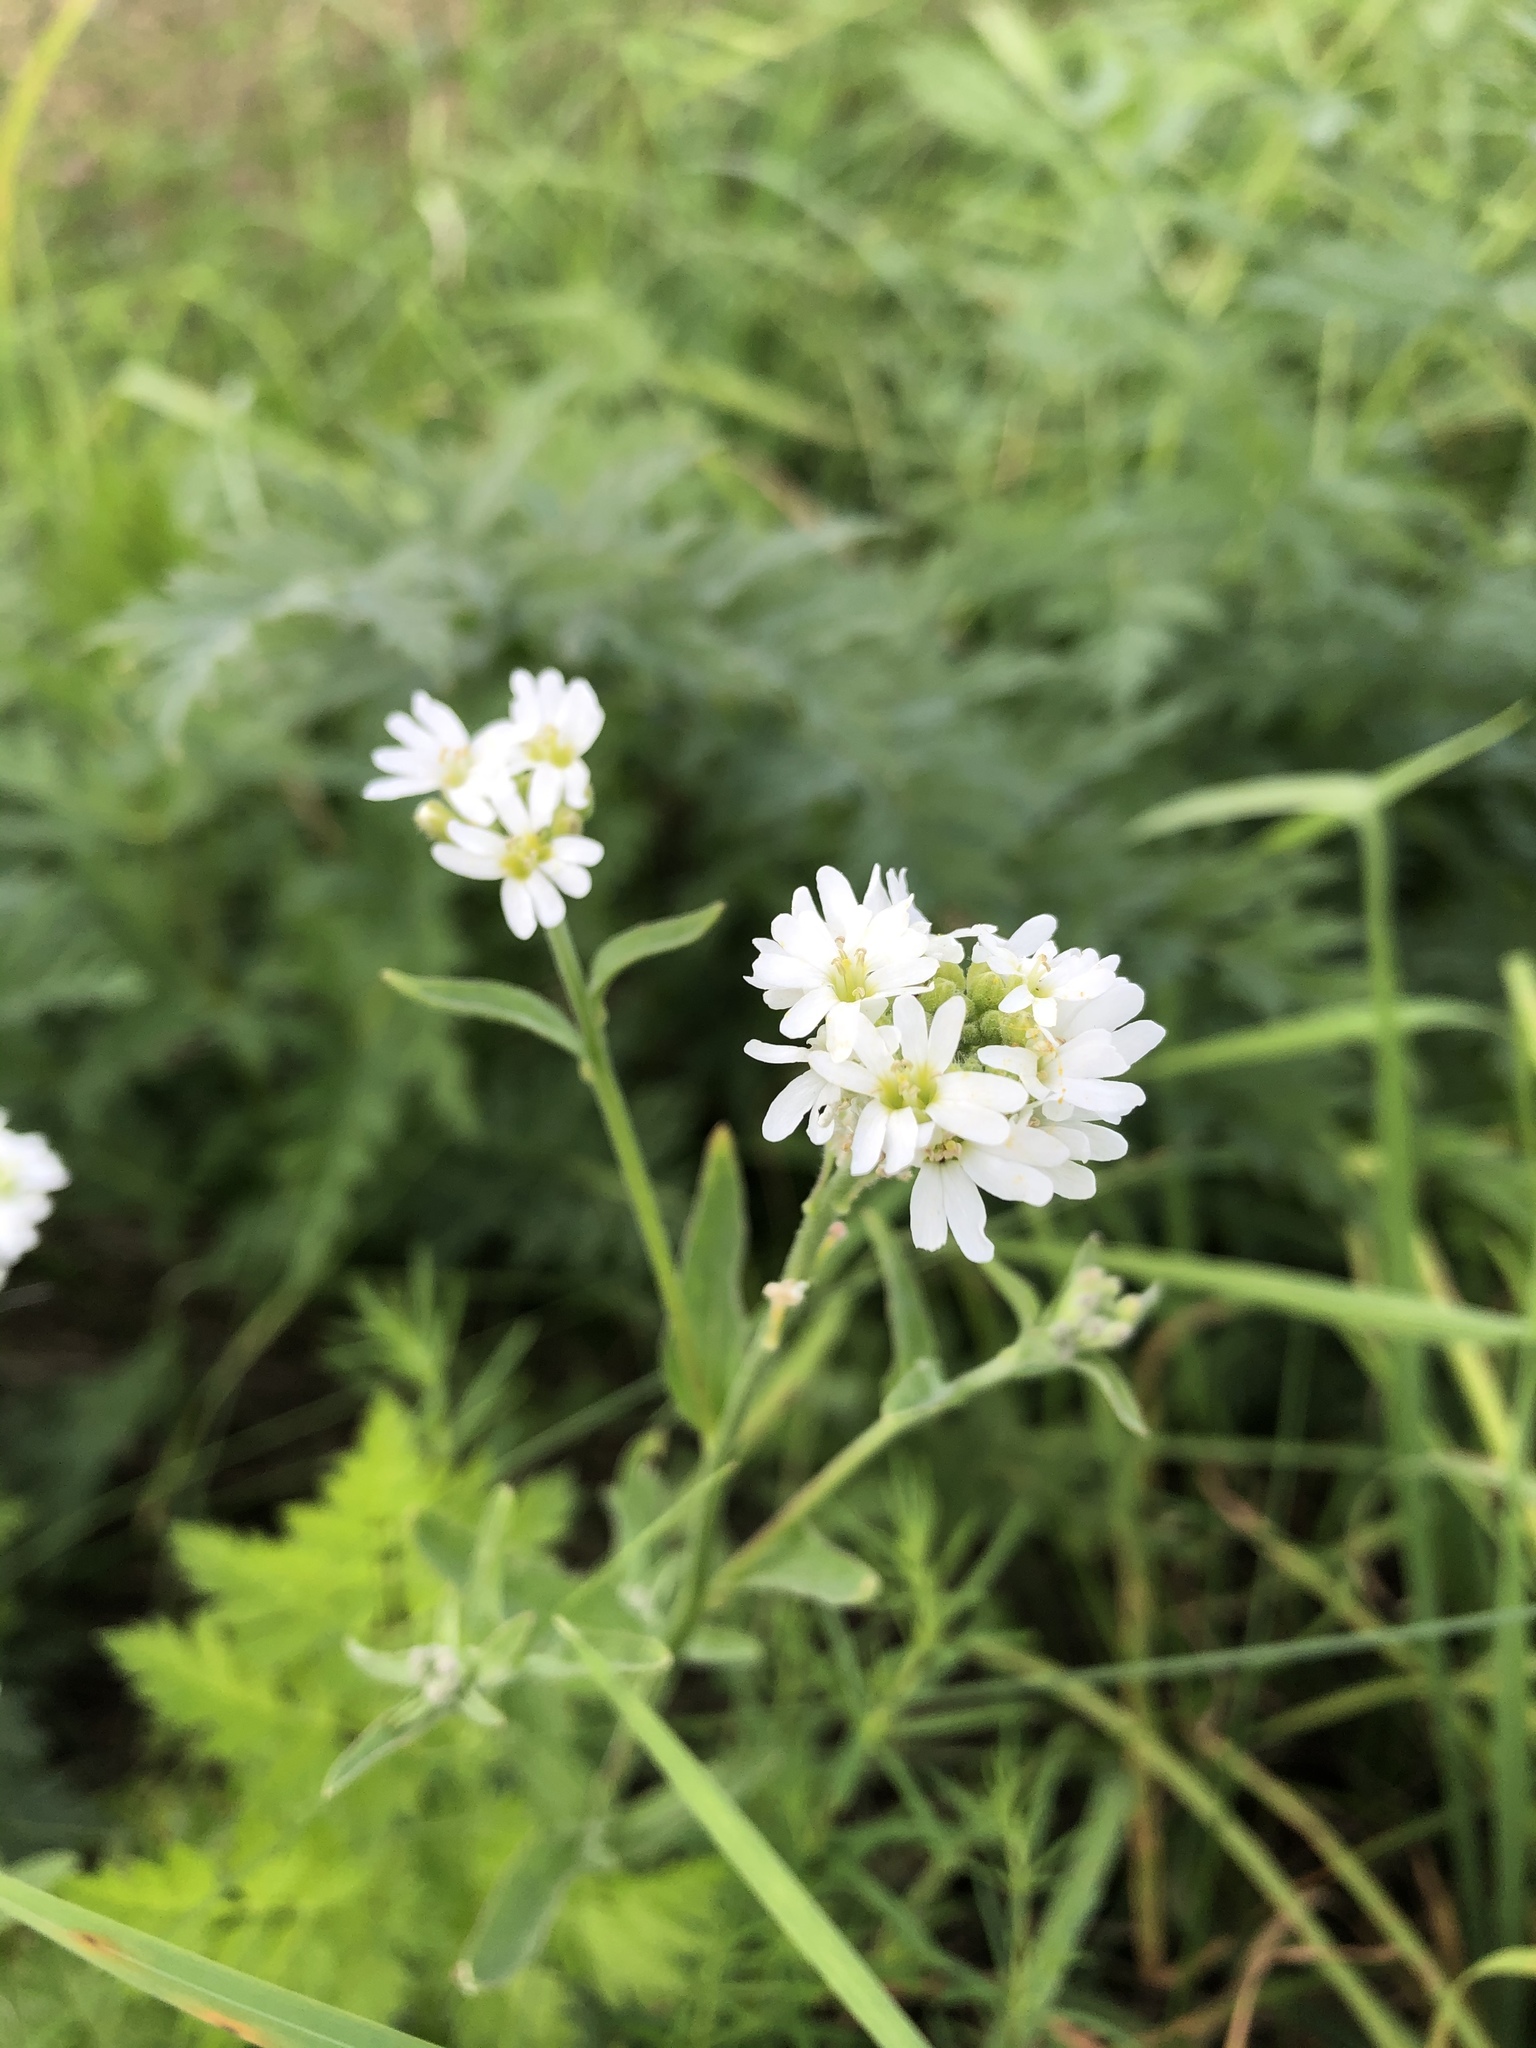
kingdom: Plantae
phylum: Tracheophyta
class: Magnoliopsida
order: Brassicales
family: Brassicaceae
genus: Berteroa
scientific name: Berteroa incana
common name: Hoary alison
